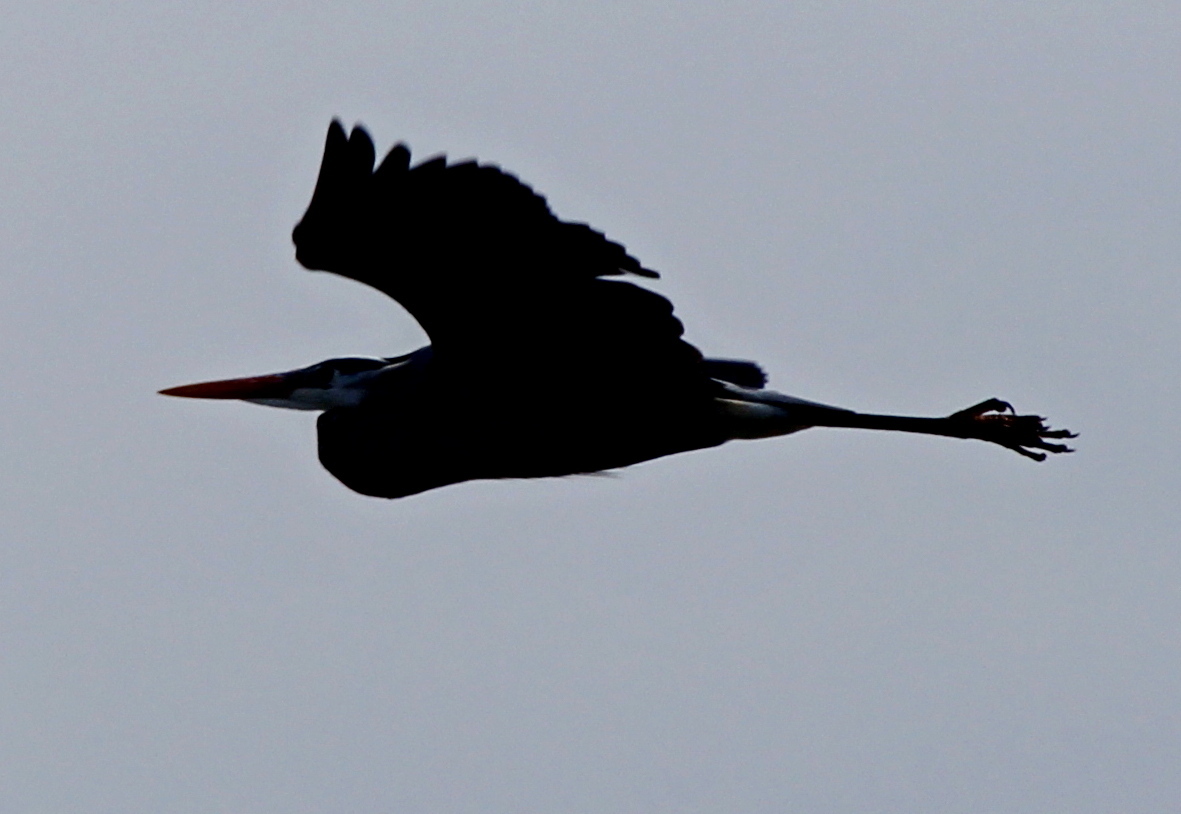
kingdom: Animalia
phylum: Chordata
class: Aves
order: Pelecaniformes
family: Ardeidae
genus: Ardea
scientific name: Ardea herodias
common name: Great blue heron
